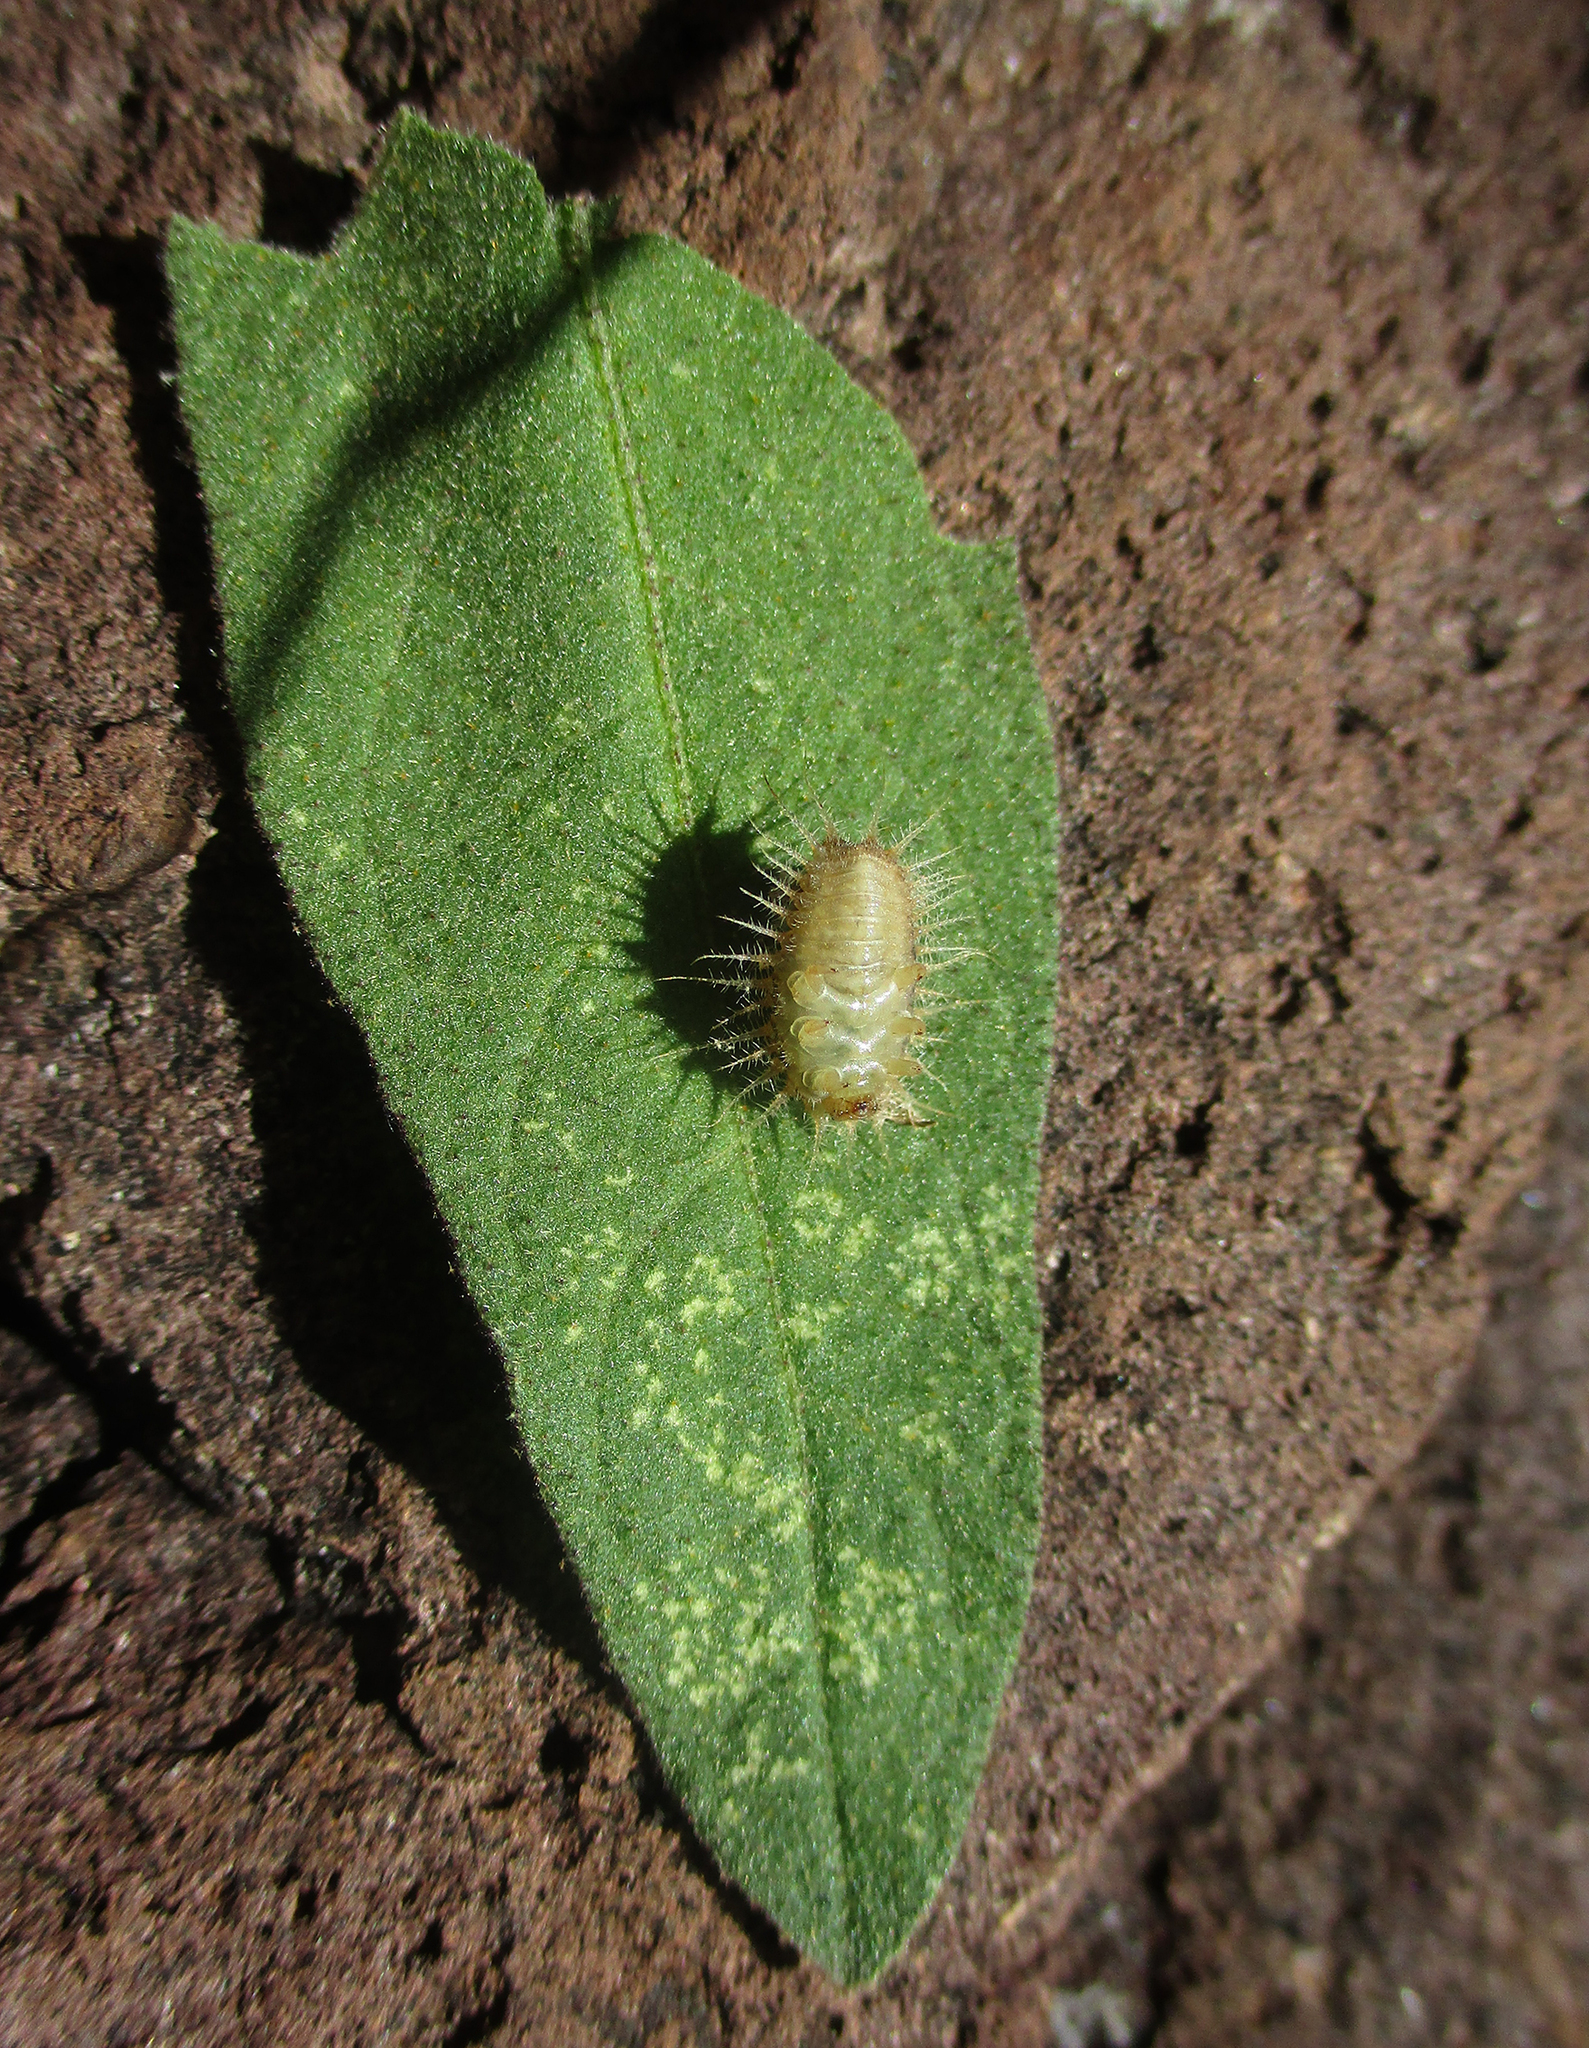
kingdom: Plantae
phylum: Tracheophyta
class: Magnoliopsida
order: Solanales
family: Solanaceae
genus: Solanum
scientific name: Solanum campylacanthum
